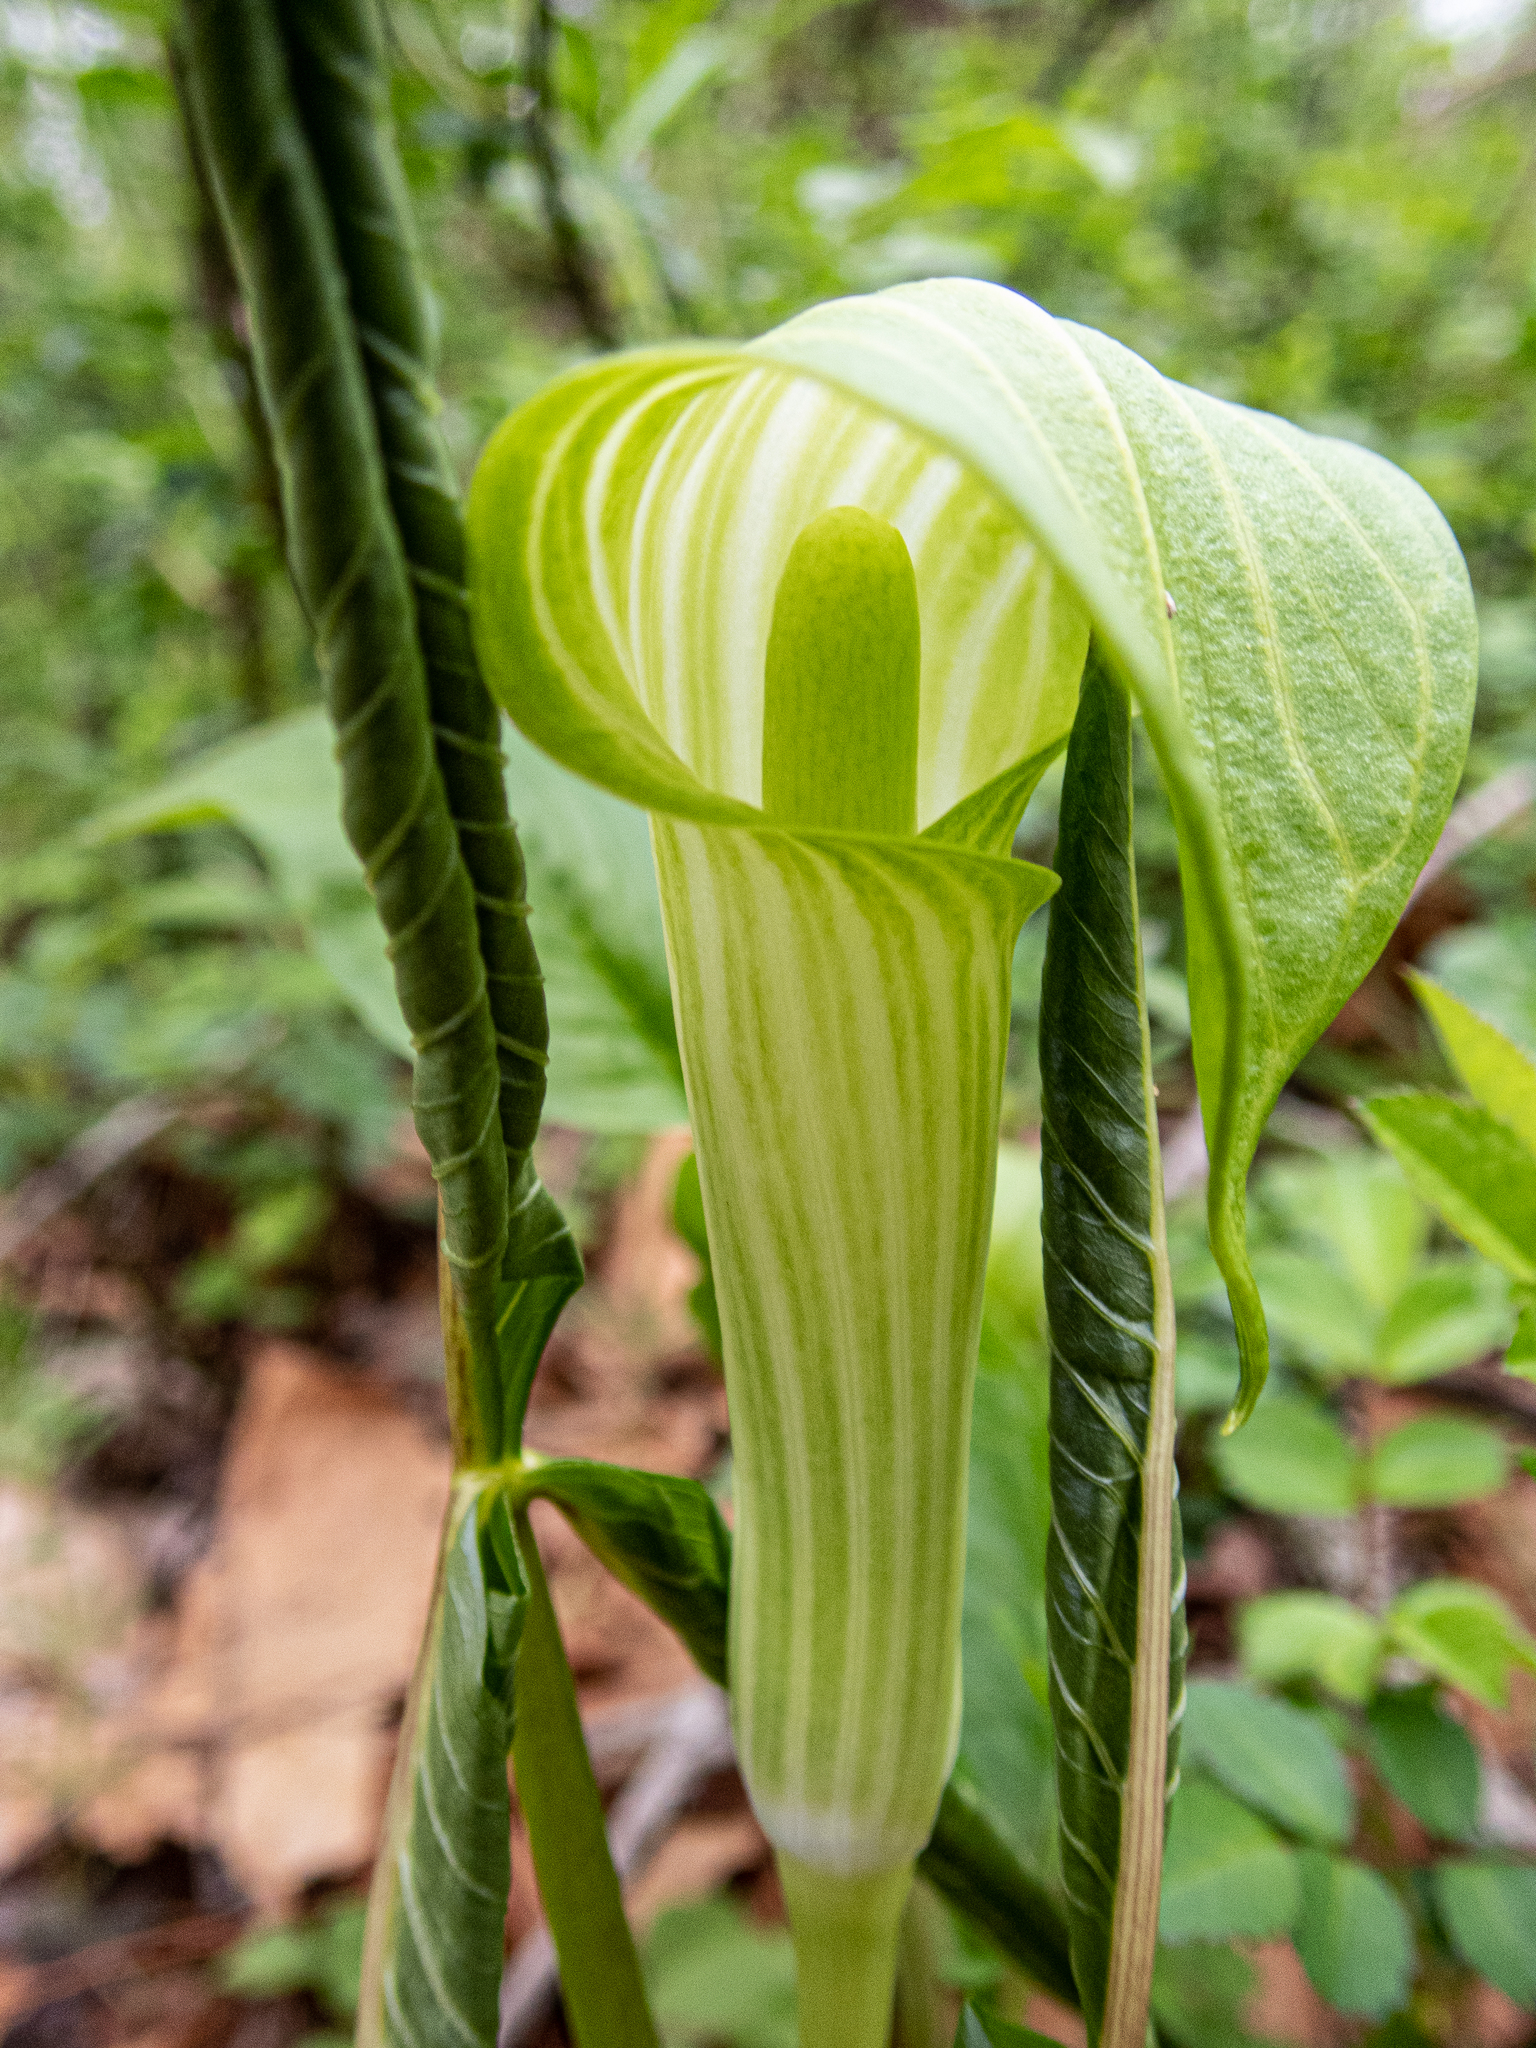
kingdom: Plantae
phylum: Tracheophyta
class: Liliopsida
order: Alismatales
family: Araceae
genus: Arisaema
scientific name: Arisaema triphyllum
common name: Jack-in-the-pulpit
